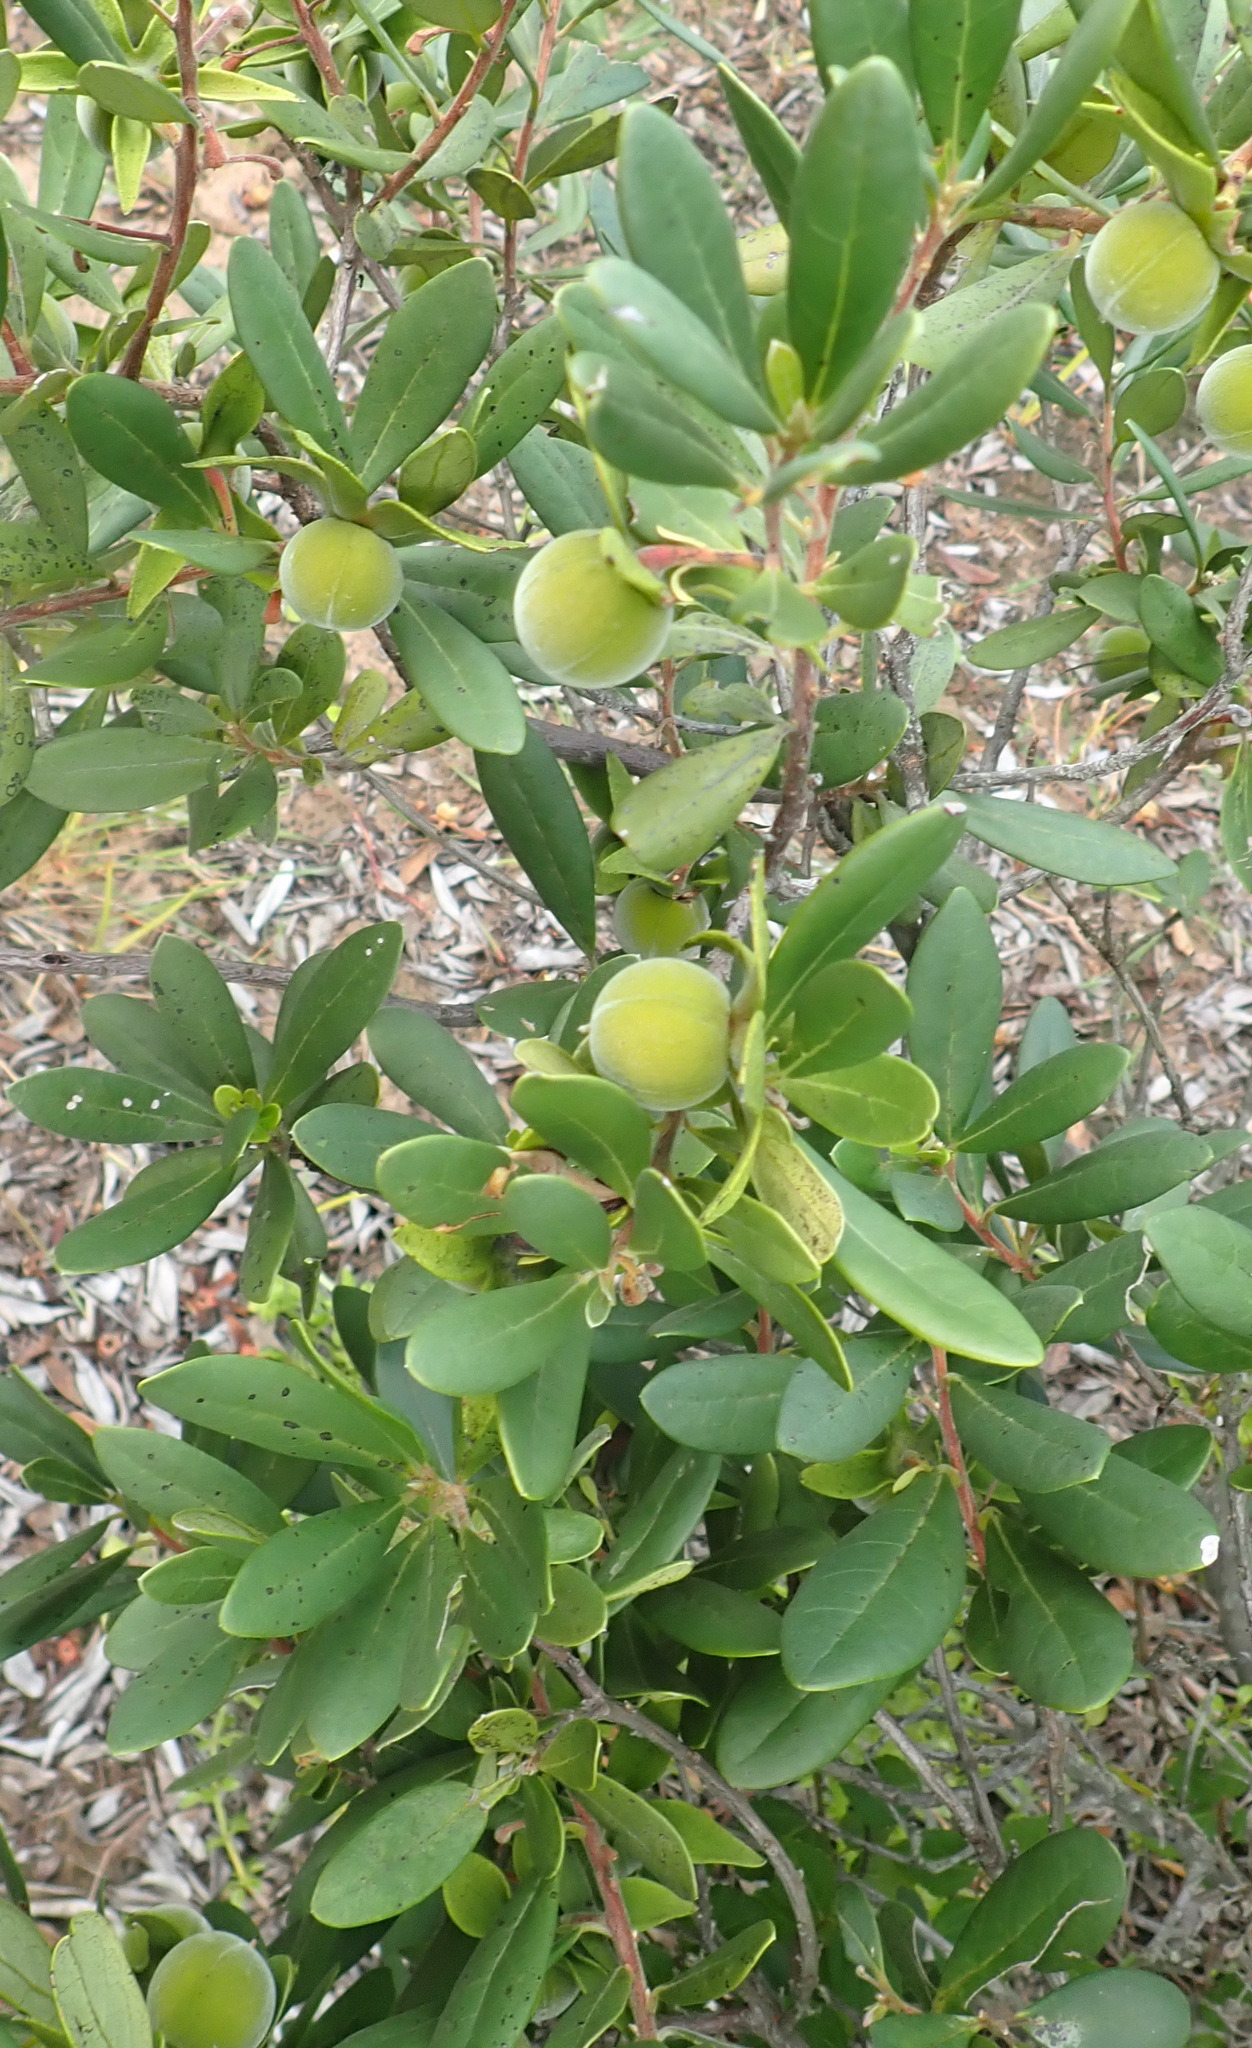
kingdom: Plantae
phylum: Tracheophyta
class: Magnoliopsida
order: Ericales
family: Ebenaceae
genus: Diospyros
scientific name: Diospyros dichrophylla
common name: Common star-apple
